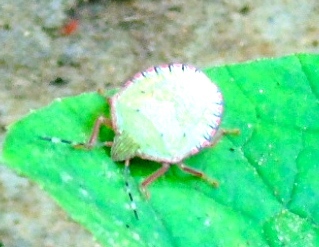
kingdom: Animalia
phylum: Arthropoda
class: Insecta
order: Hemiptera
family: Pentatomidae
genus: Chlorocoris
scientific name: Chlorocoris
